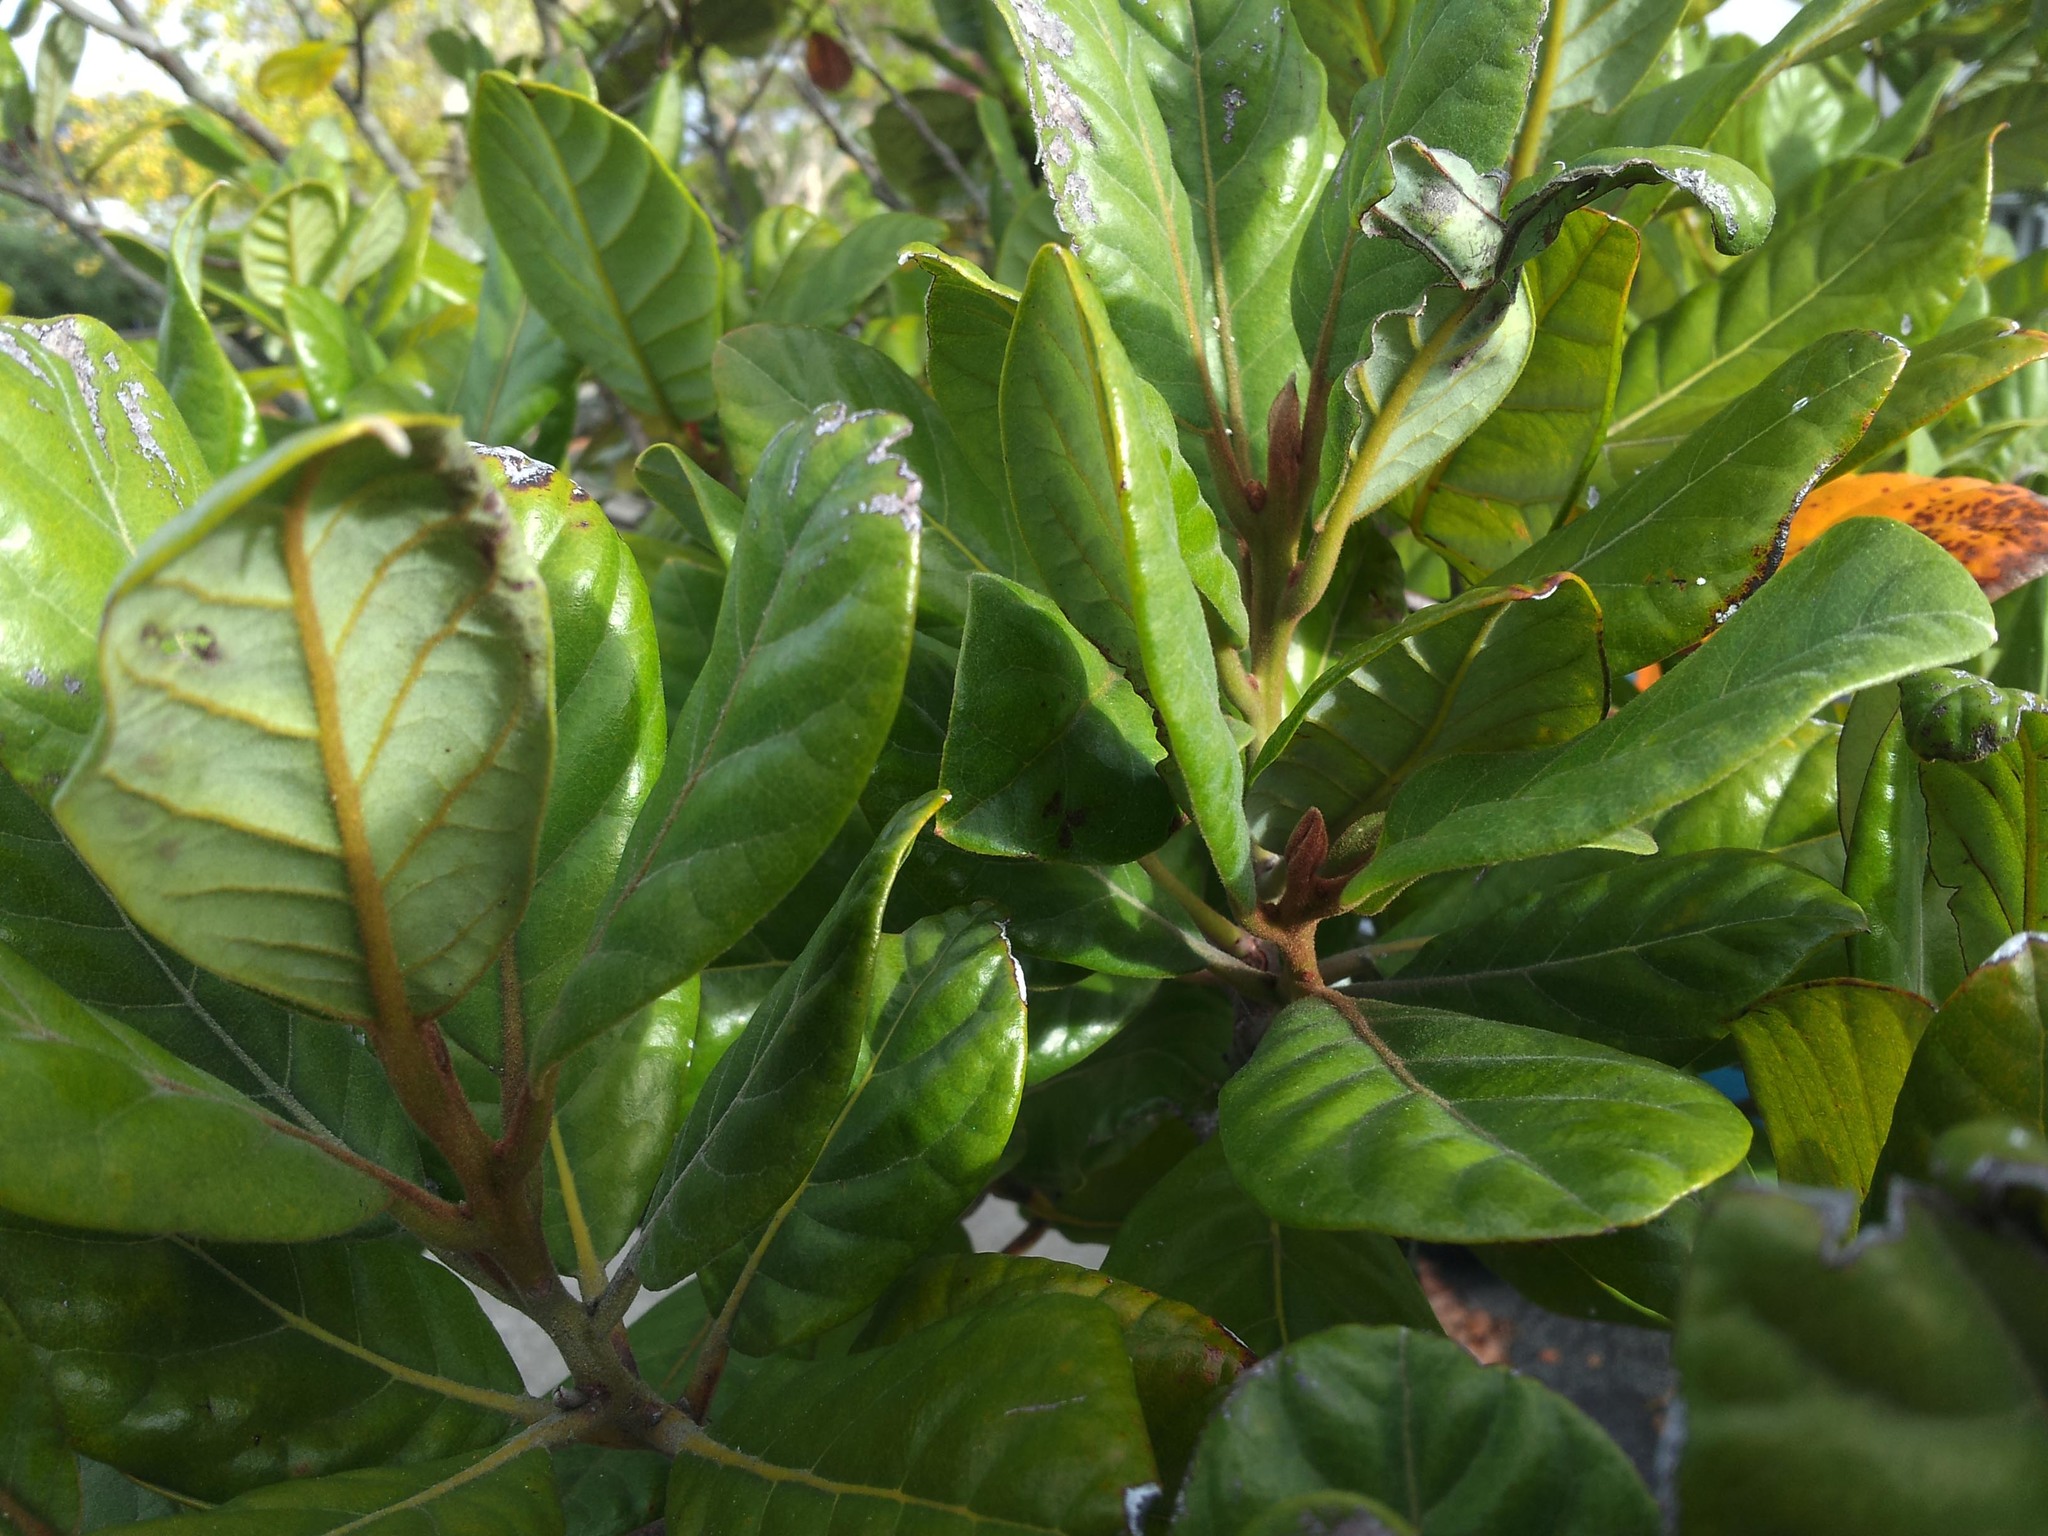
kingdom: Plantae
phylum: Tracheophyta
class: Magnoliopsida
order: Laurales
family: Lauraceae
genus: Beilschmiedia
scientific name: Beilschmiedia tarairi
